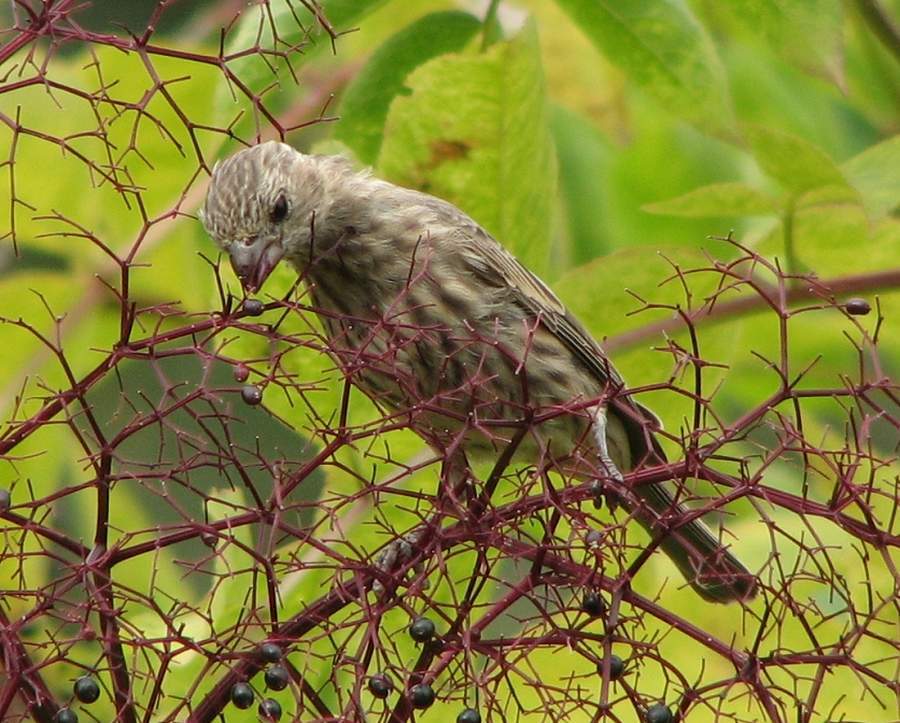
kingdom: Animalia
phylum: Chordata
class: Aves
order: Passeriformes
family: Fringillidae
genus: Haemorhous
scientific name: Haemorhous mexicanus
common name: House finch
